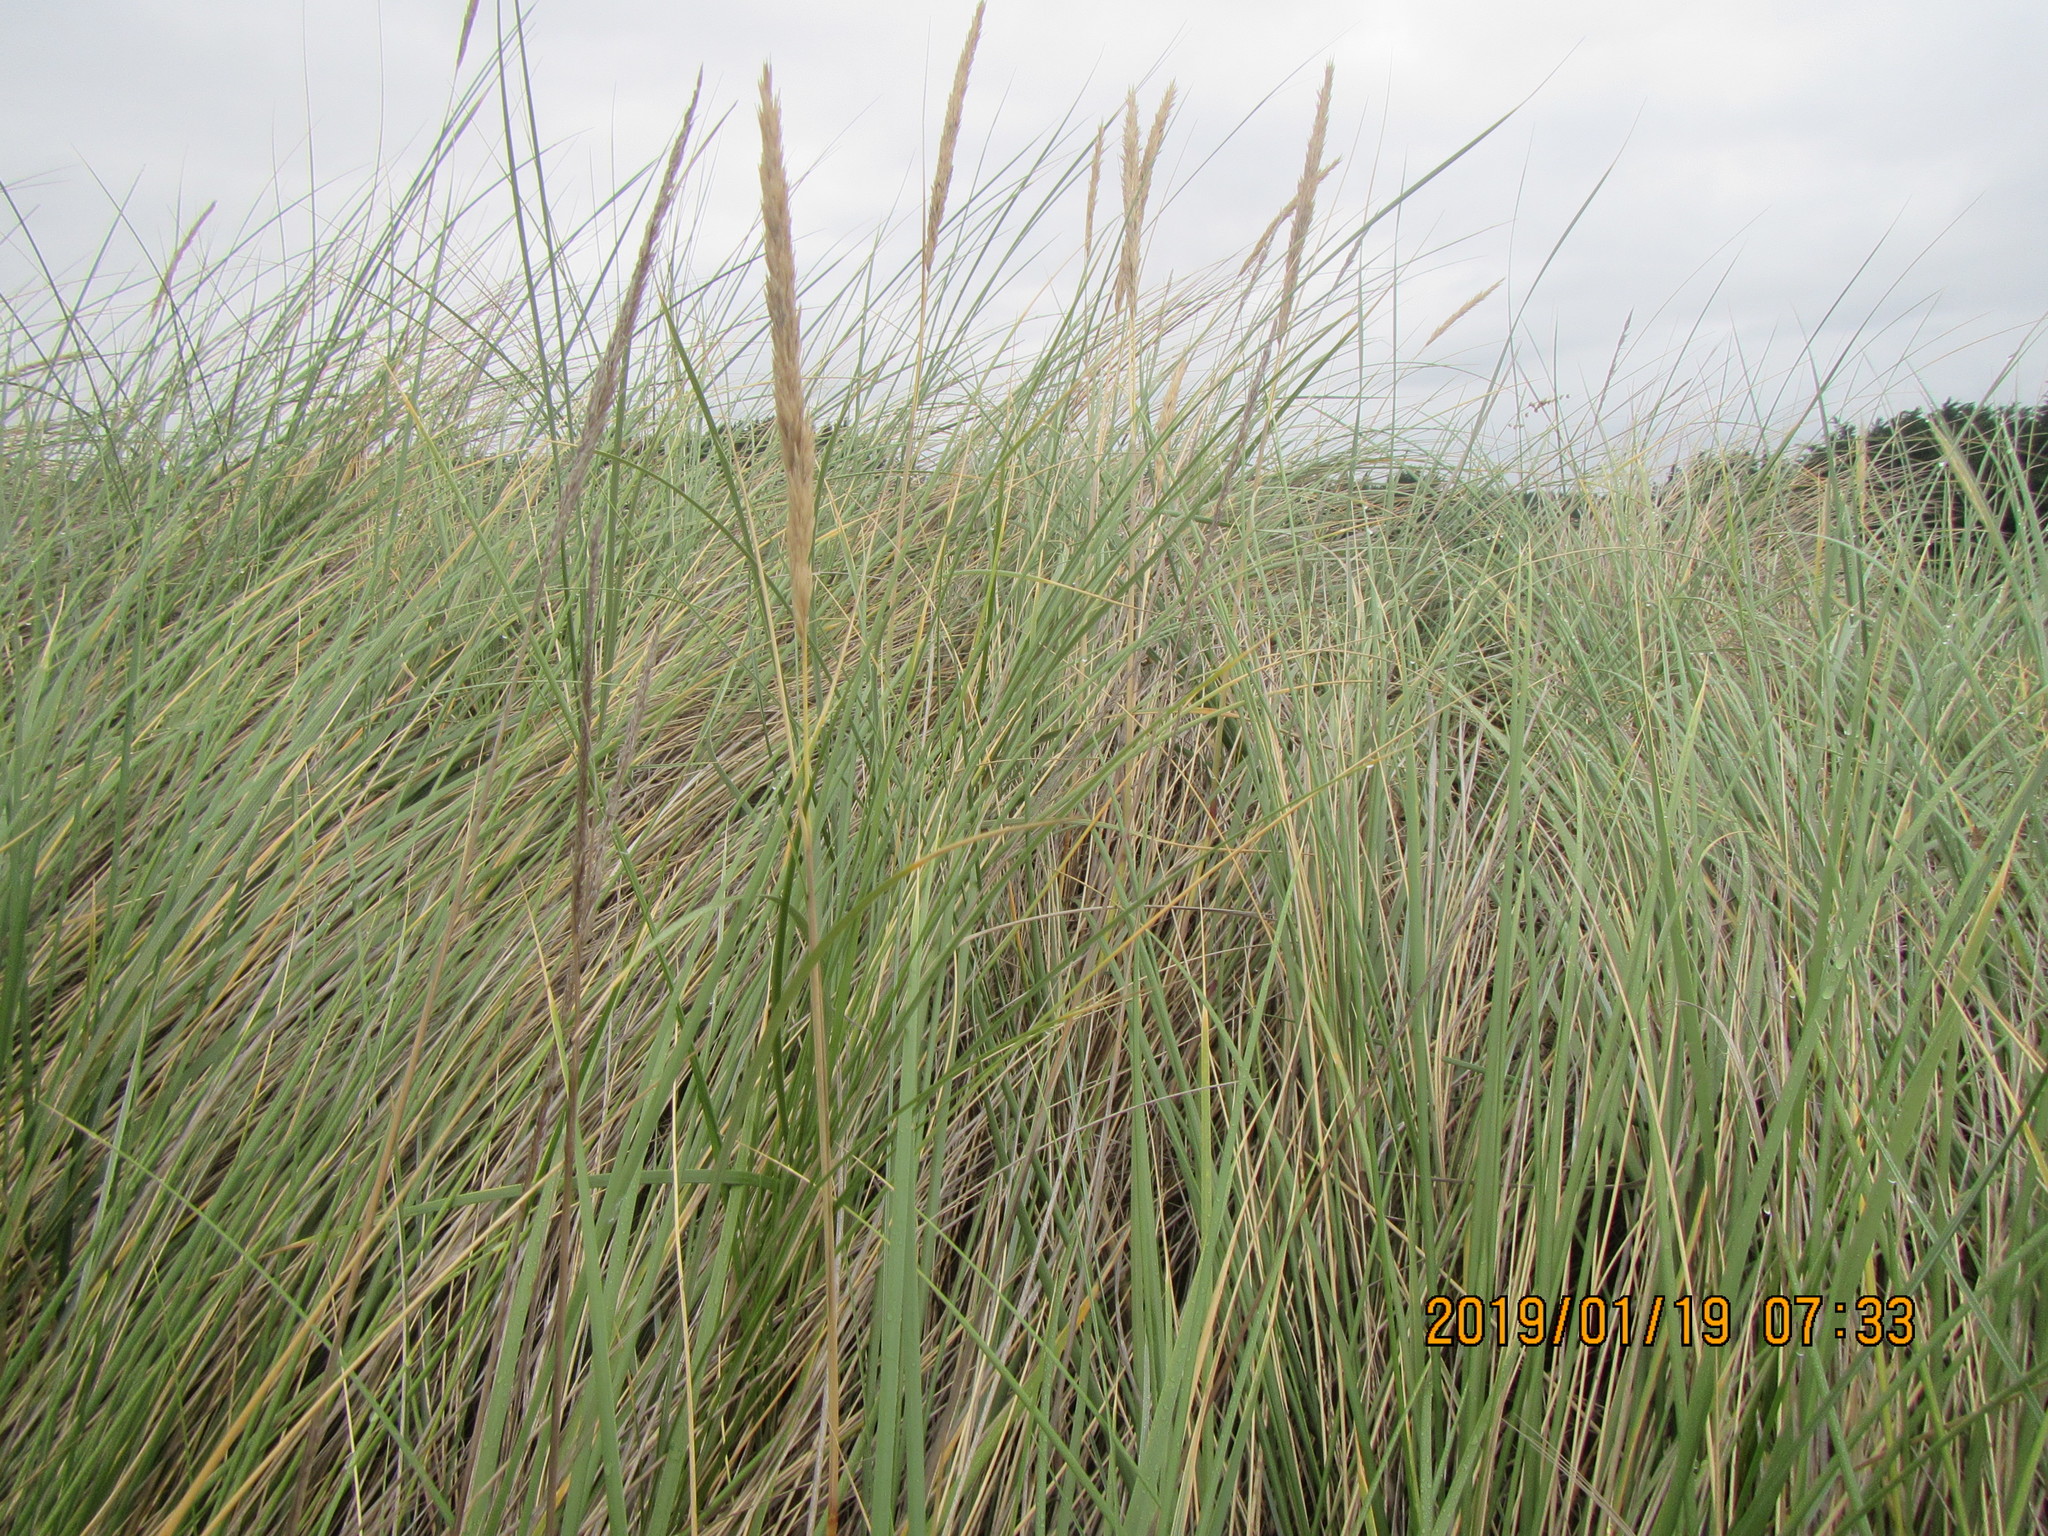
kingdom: Plantae
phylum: Tracheophyta
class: Liliopsida
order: Poales
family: Poaceae
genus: Calamagrostis
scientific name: Calamagrostis arenaria
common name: European beachgrass
